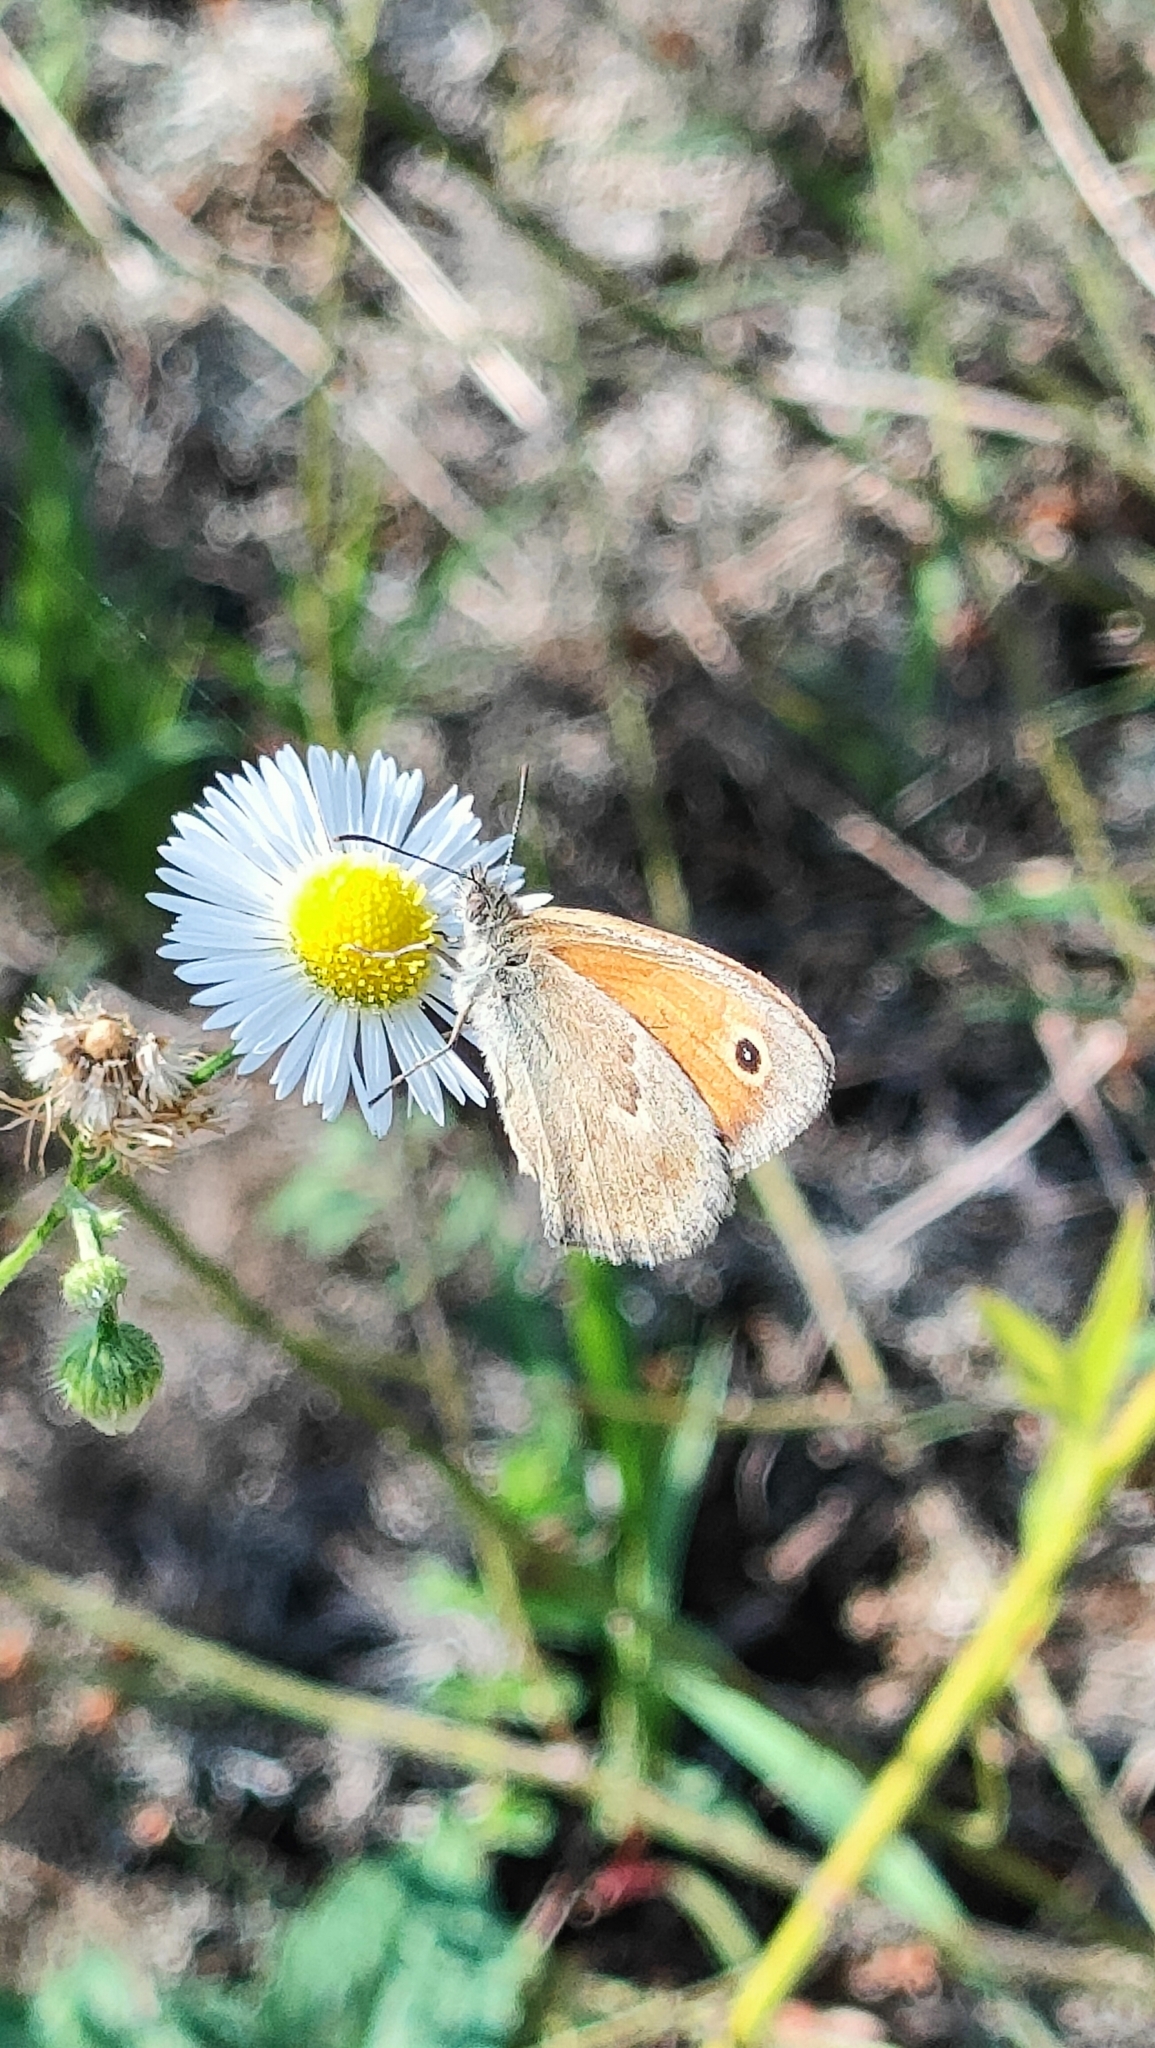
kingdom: Animalia
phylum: Arthropoda
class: Insecta
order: Lepidoptera
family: Nymphalidae
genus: Coenonympha
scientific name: Coenonympha pamphilus
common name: Small heath
